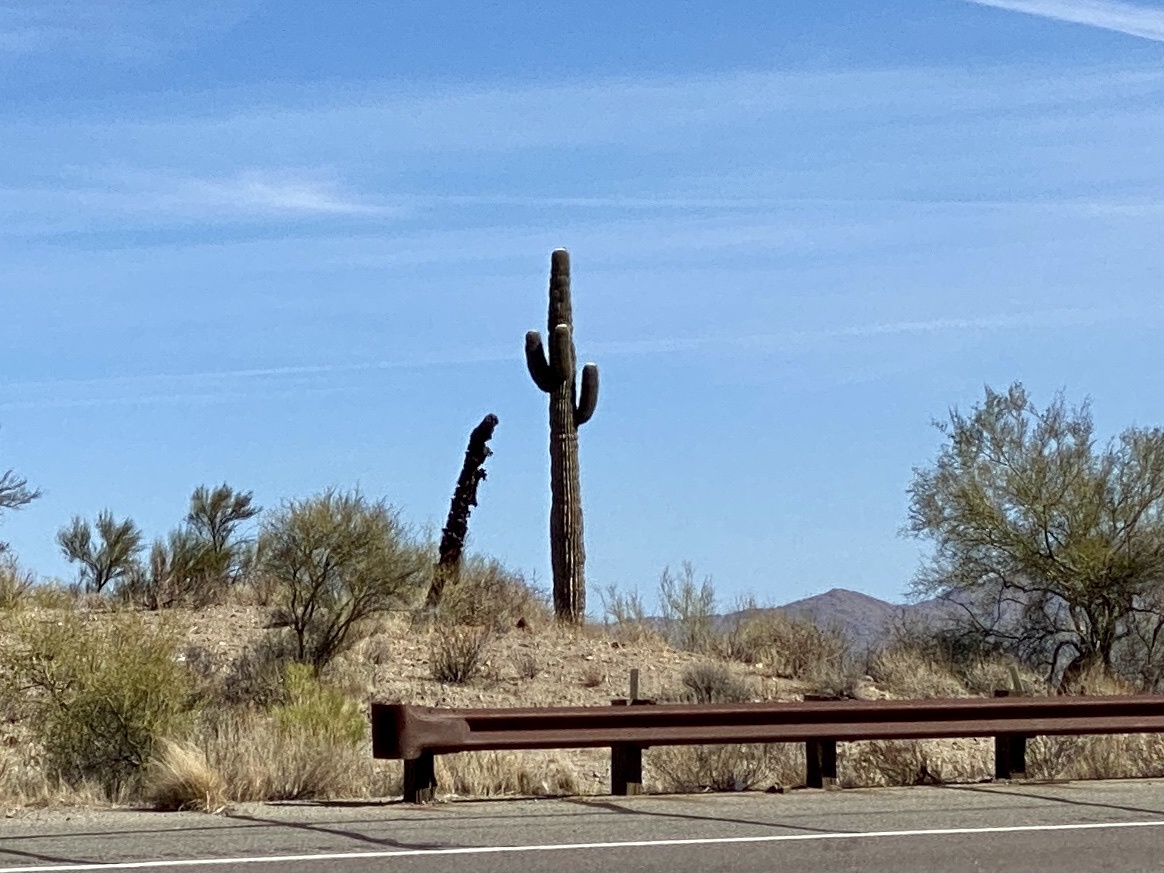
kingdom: Plantae
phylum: Tracheophyta
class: Magnoliopsida
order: Caryophyllales
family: Cactaceae
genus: Carnegiea
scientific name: Carnegiea gigantea
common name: Saguaro
